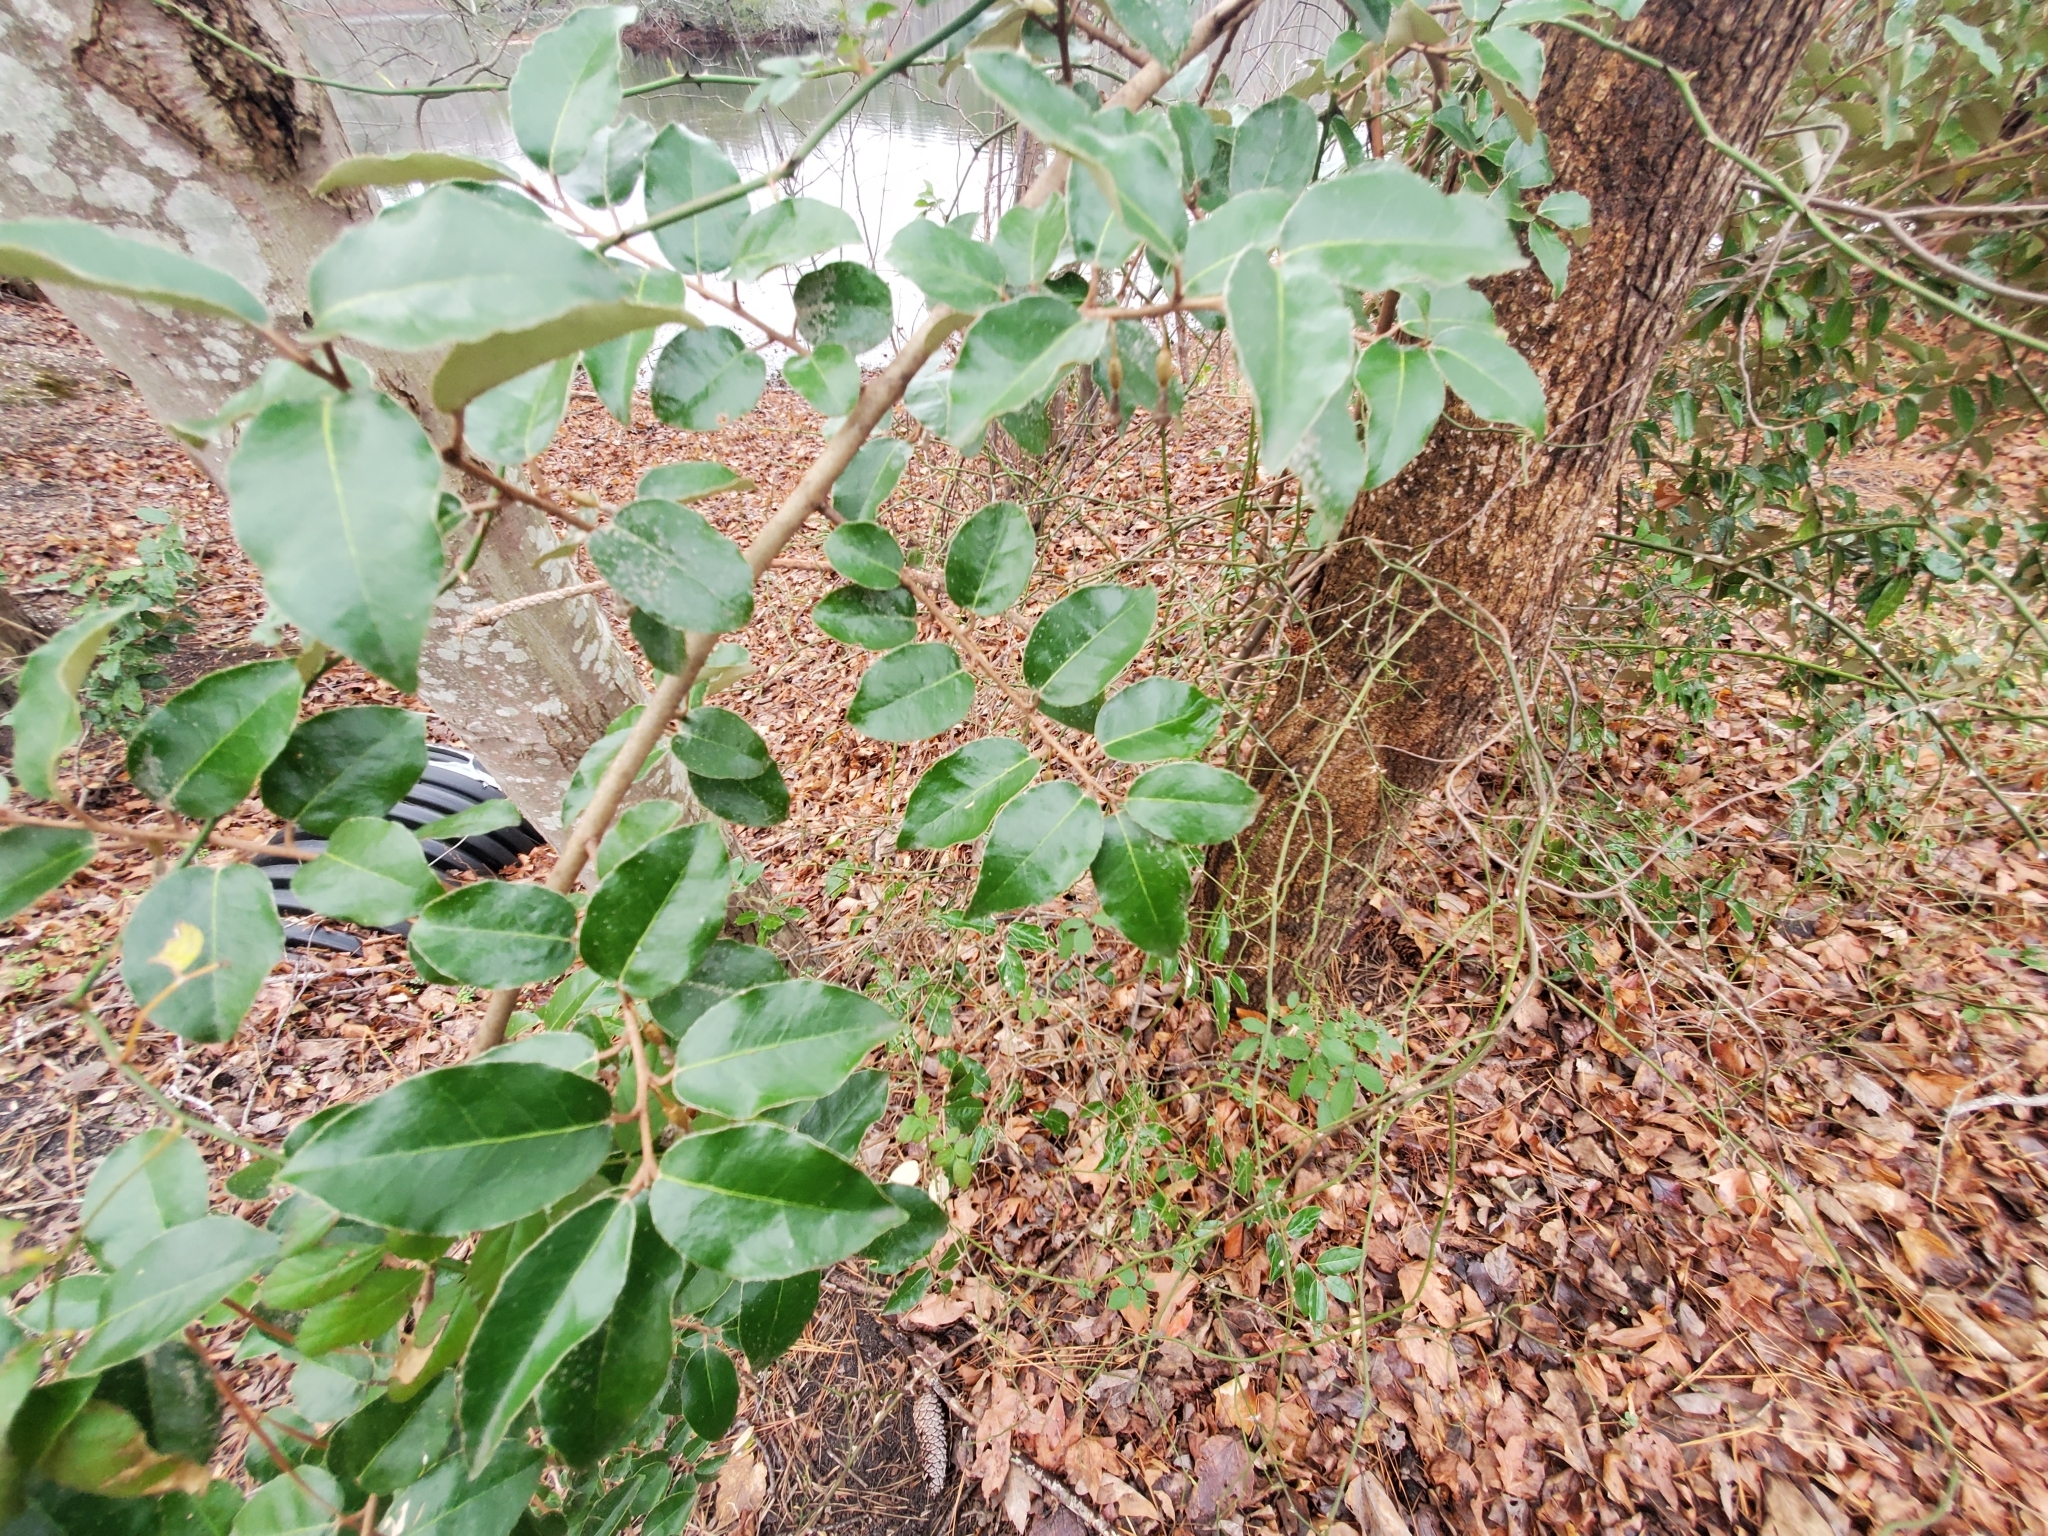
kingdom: Plantae
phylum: Tracheophyta
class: Magnoliopsida
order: Rosales
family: Elaeagnaceae
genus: Elaeagnus
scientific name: Elaeagnus pungens
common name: Spiny oleaster
